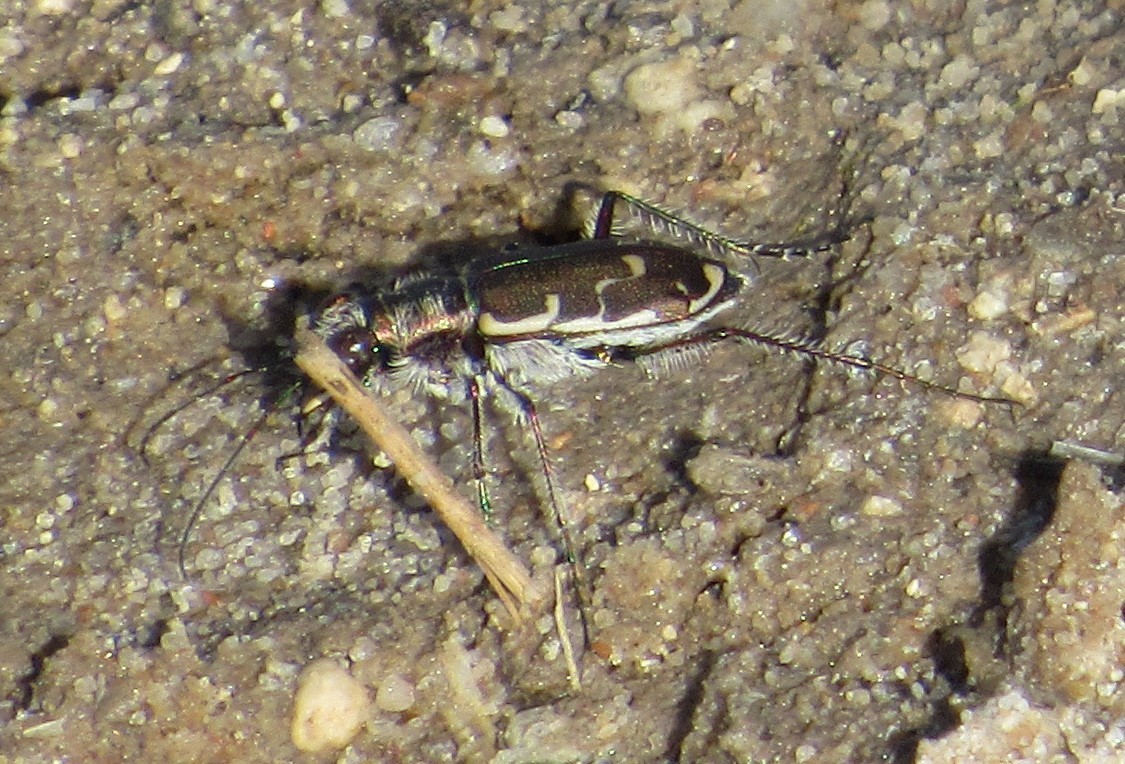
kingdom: Animalia
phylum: Arthropoda
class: Insecta
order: Coleoptera
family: Carabidae
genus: Cicindela
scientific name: Cicindela repanda
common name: Bronzed tiger beetle
